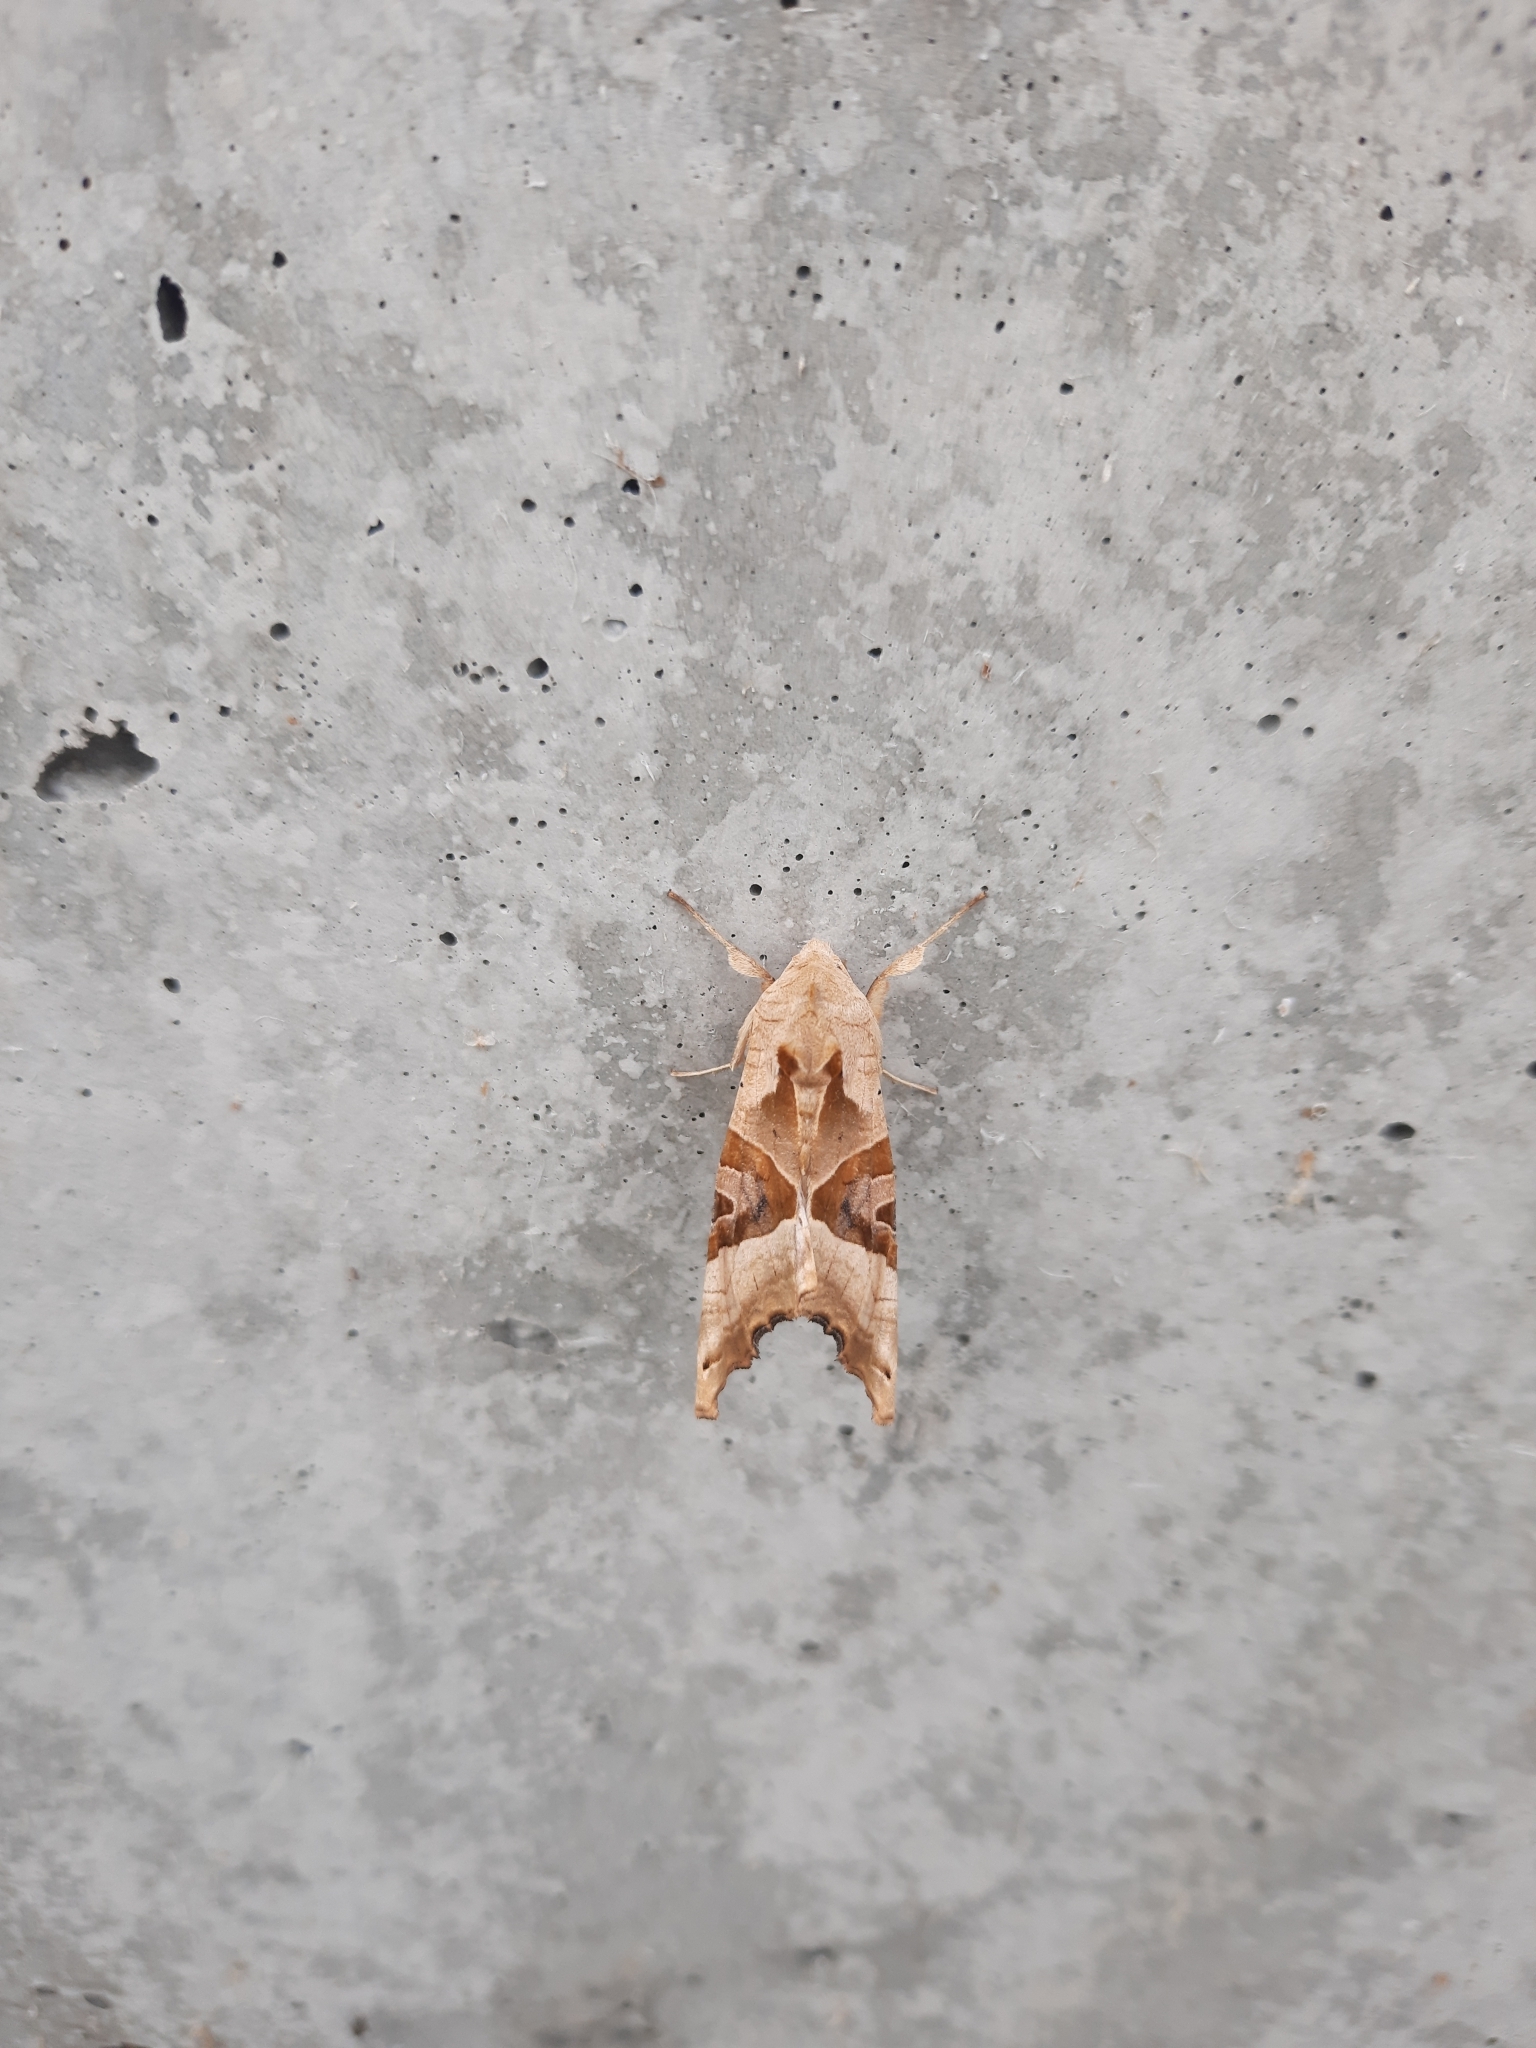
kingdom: Animalia
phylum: Arthropoda
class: Insecta
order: Lepidoptera
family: Noctuidae
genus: Phlogophora
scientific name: Phlogophora meticulosa
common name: Angle shades
